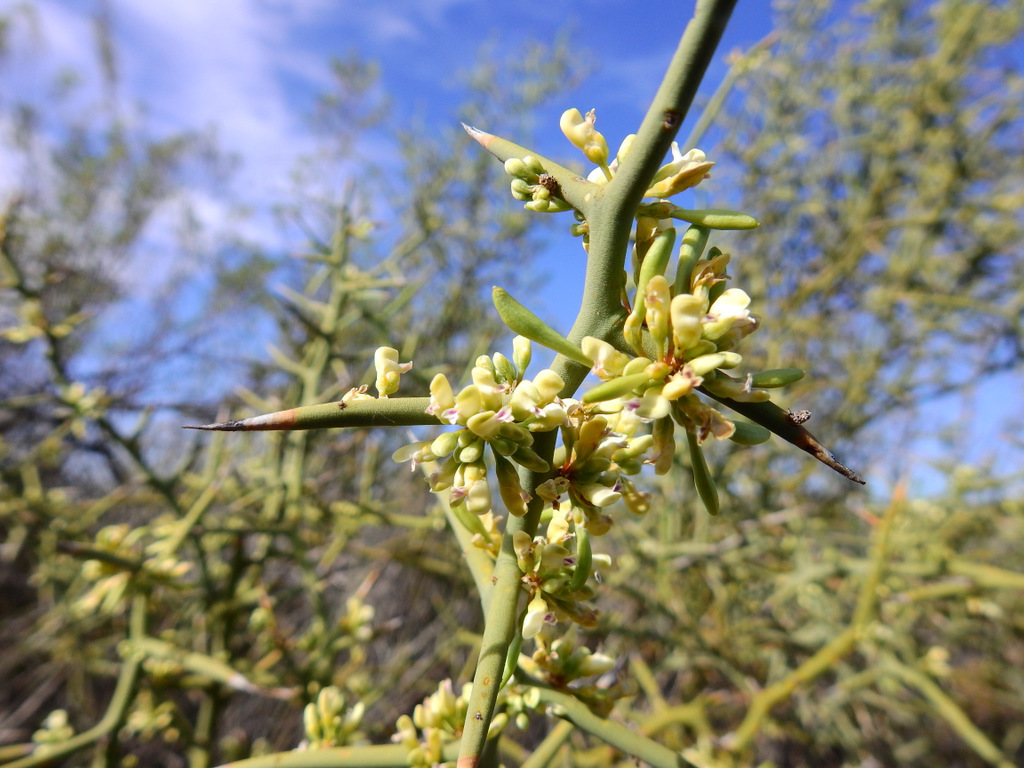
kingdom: Plantae
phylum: Tracheophyta
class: Magnoliopsida
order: Fabales
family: Polygalaceae
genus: Bredemeyera
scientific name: Bredemeyera colletioides
